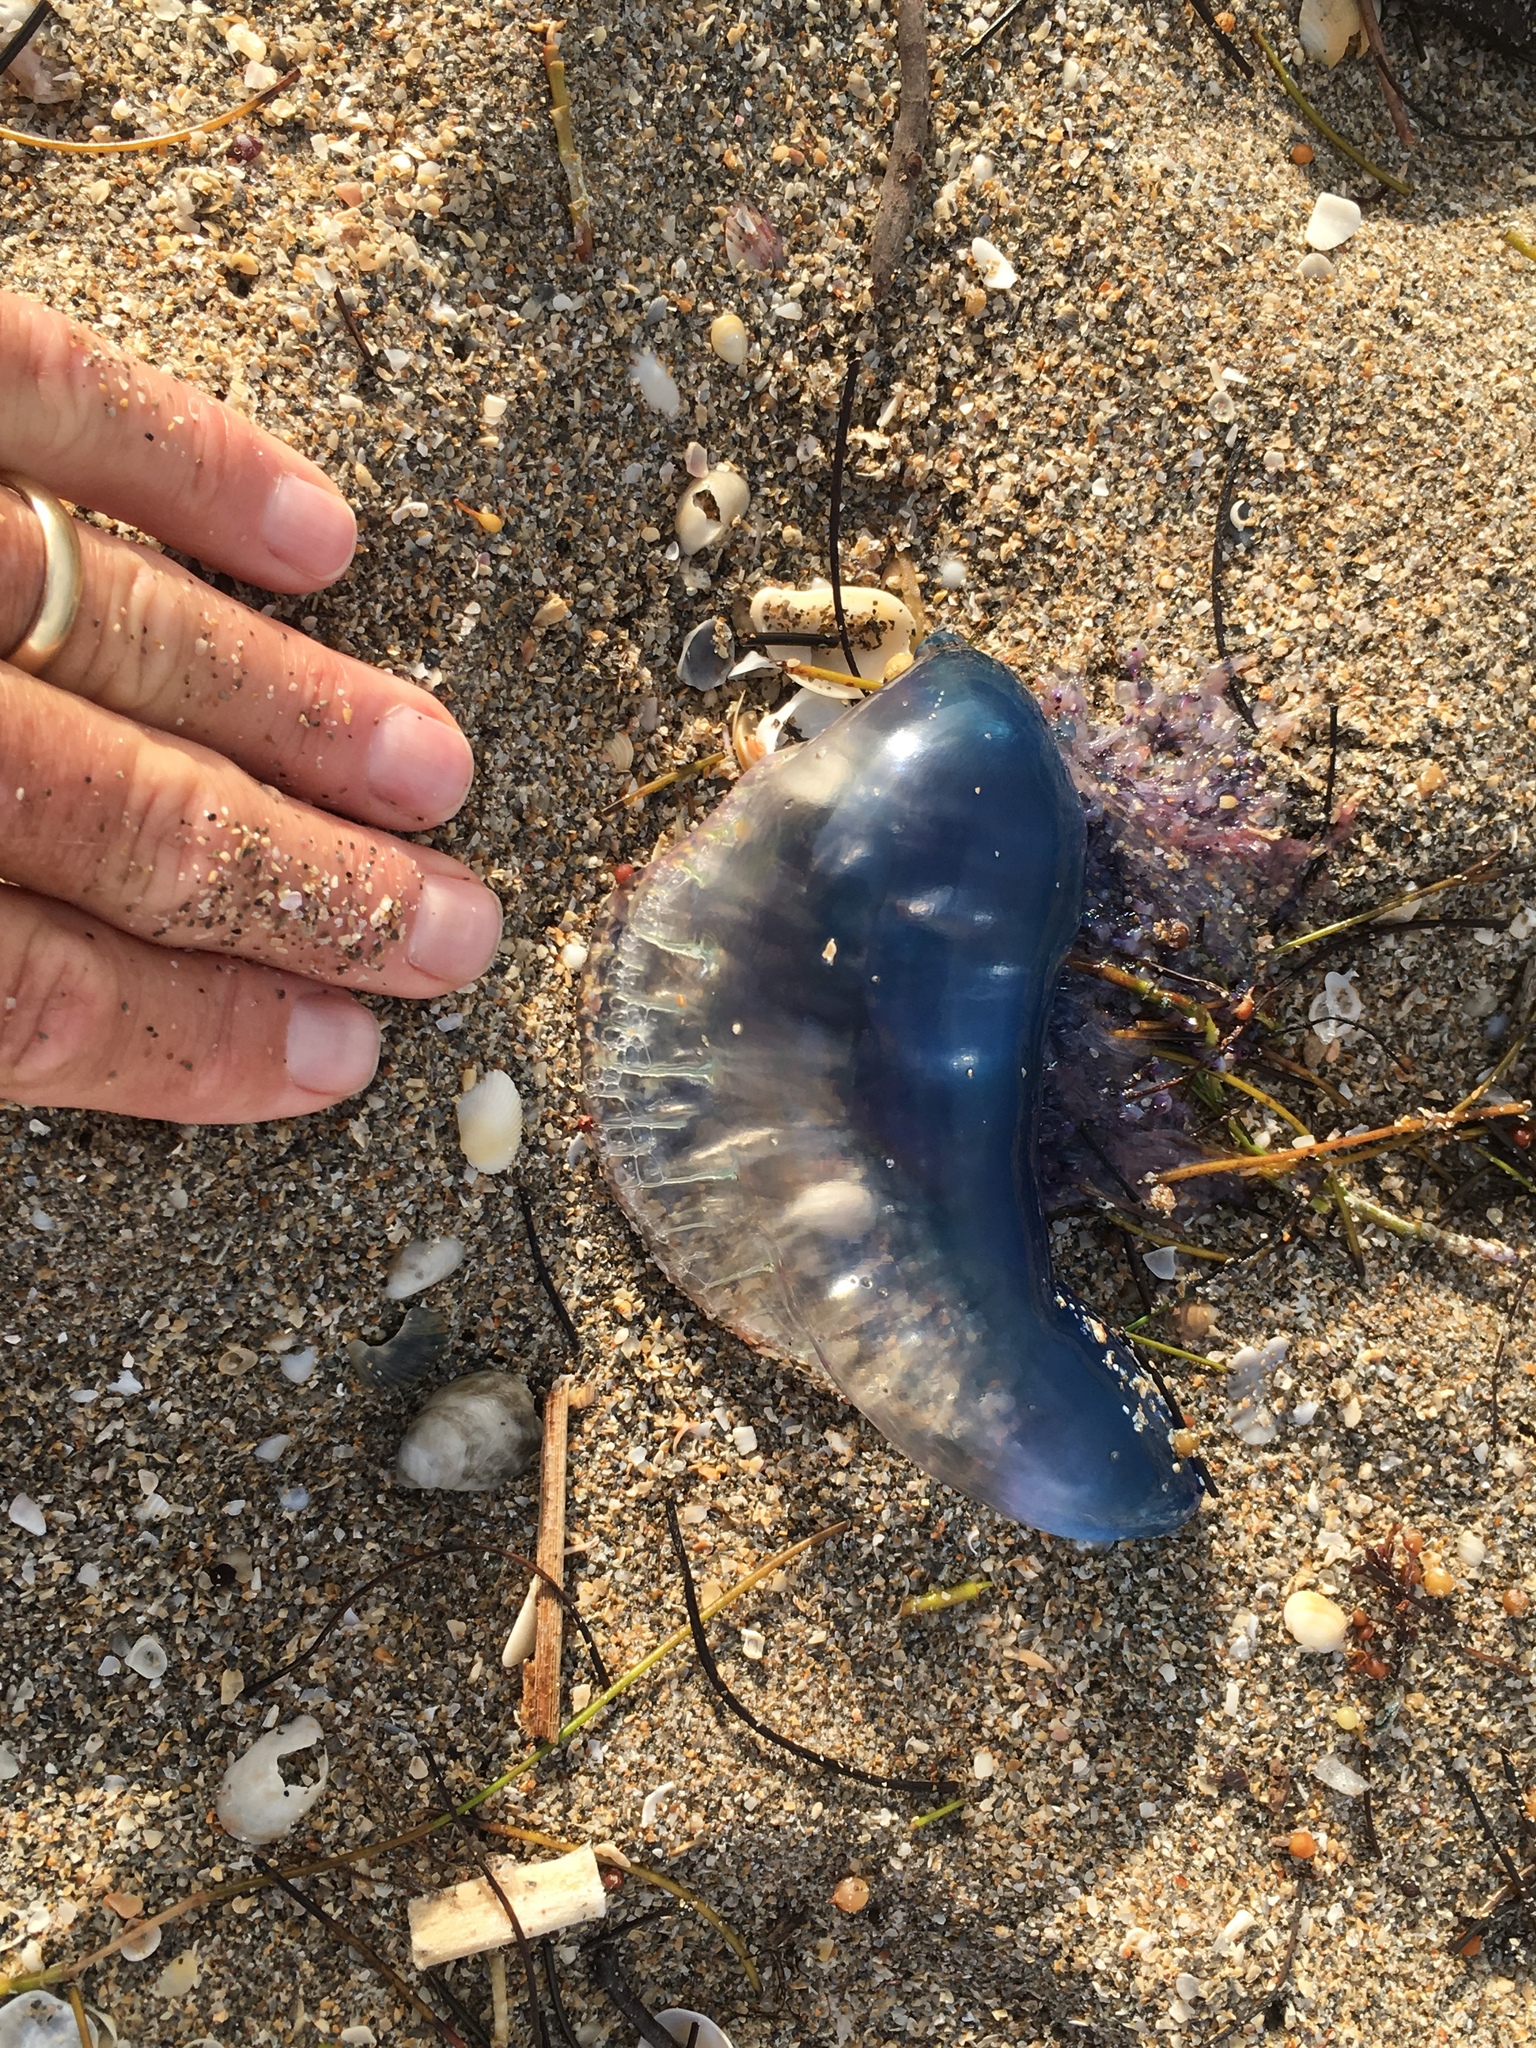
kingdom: Animalia
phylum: Cnidaria
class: Hydrozoa
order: Siphonophorae
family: Physaliidae
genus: Physalia
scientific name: Physalia physalis
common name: Portuguese man-of-war
